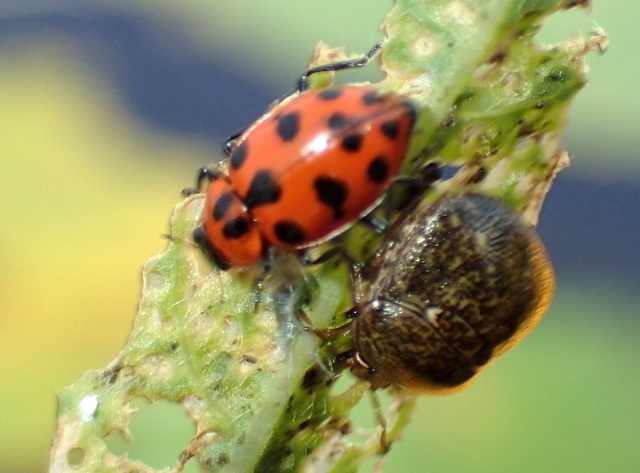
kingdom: Animalia
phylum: Arthropoda
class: Insecta
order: Coleoptera
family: Coccinellidae
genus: Coleomegilla
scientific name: Coleomegilla maculata
